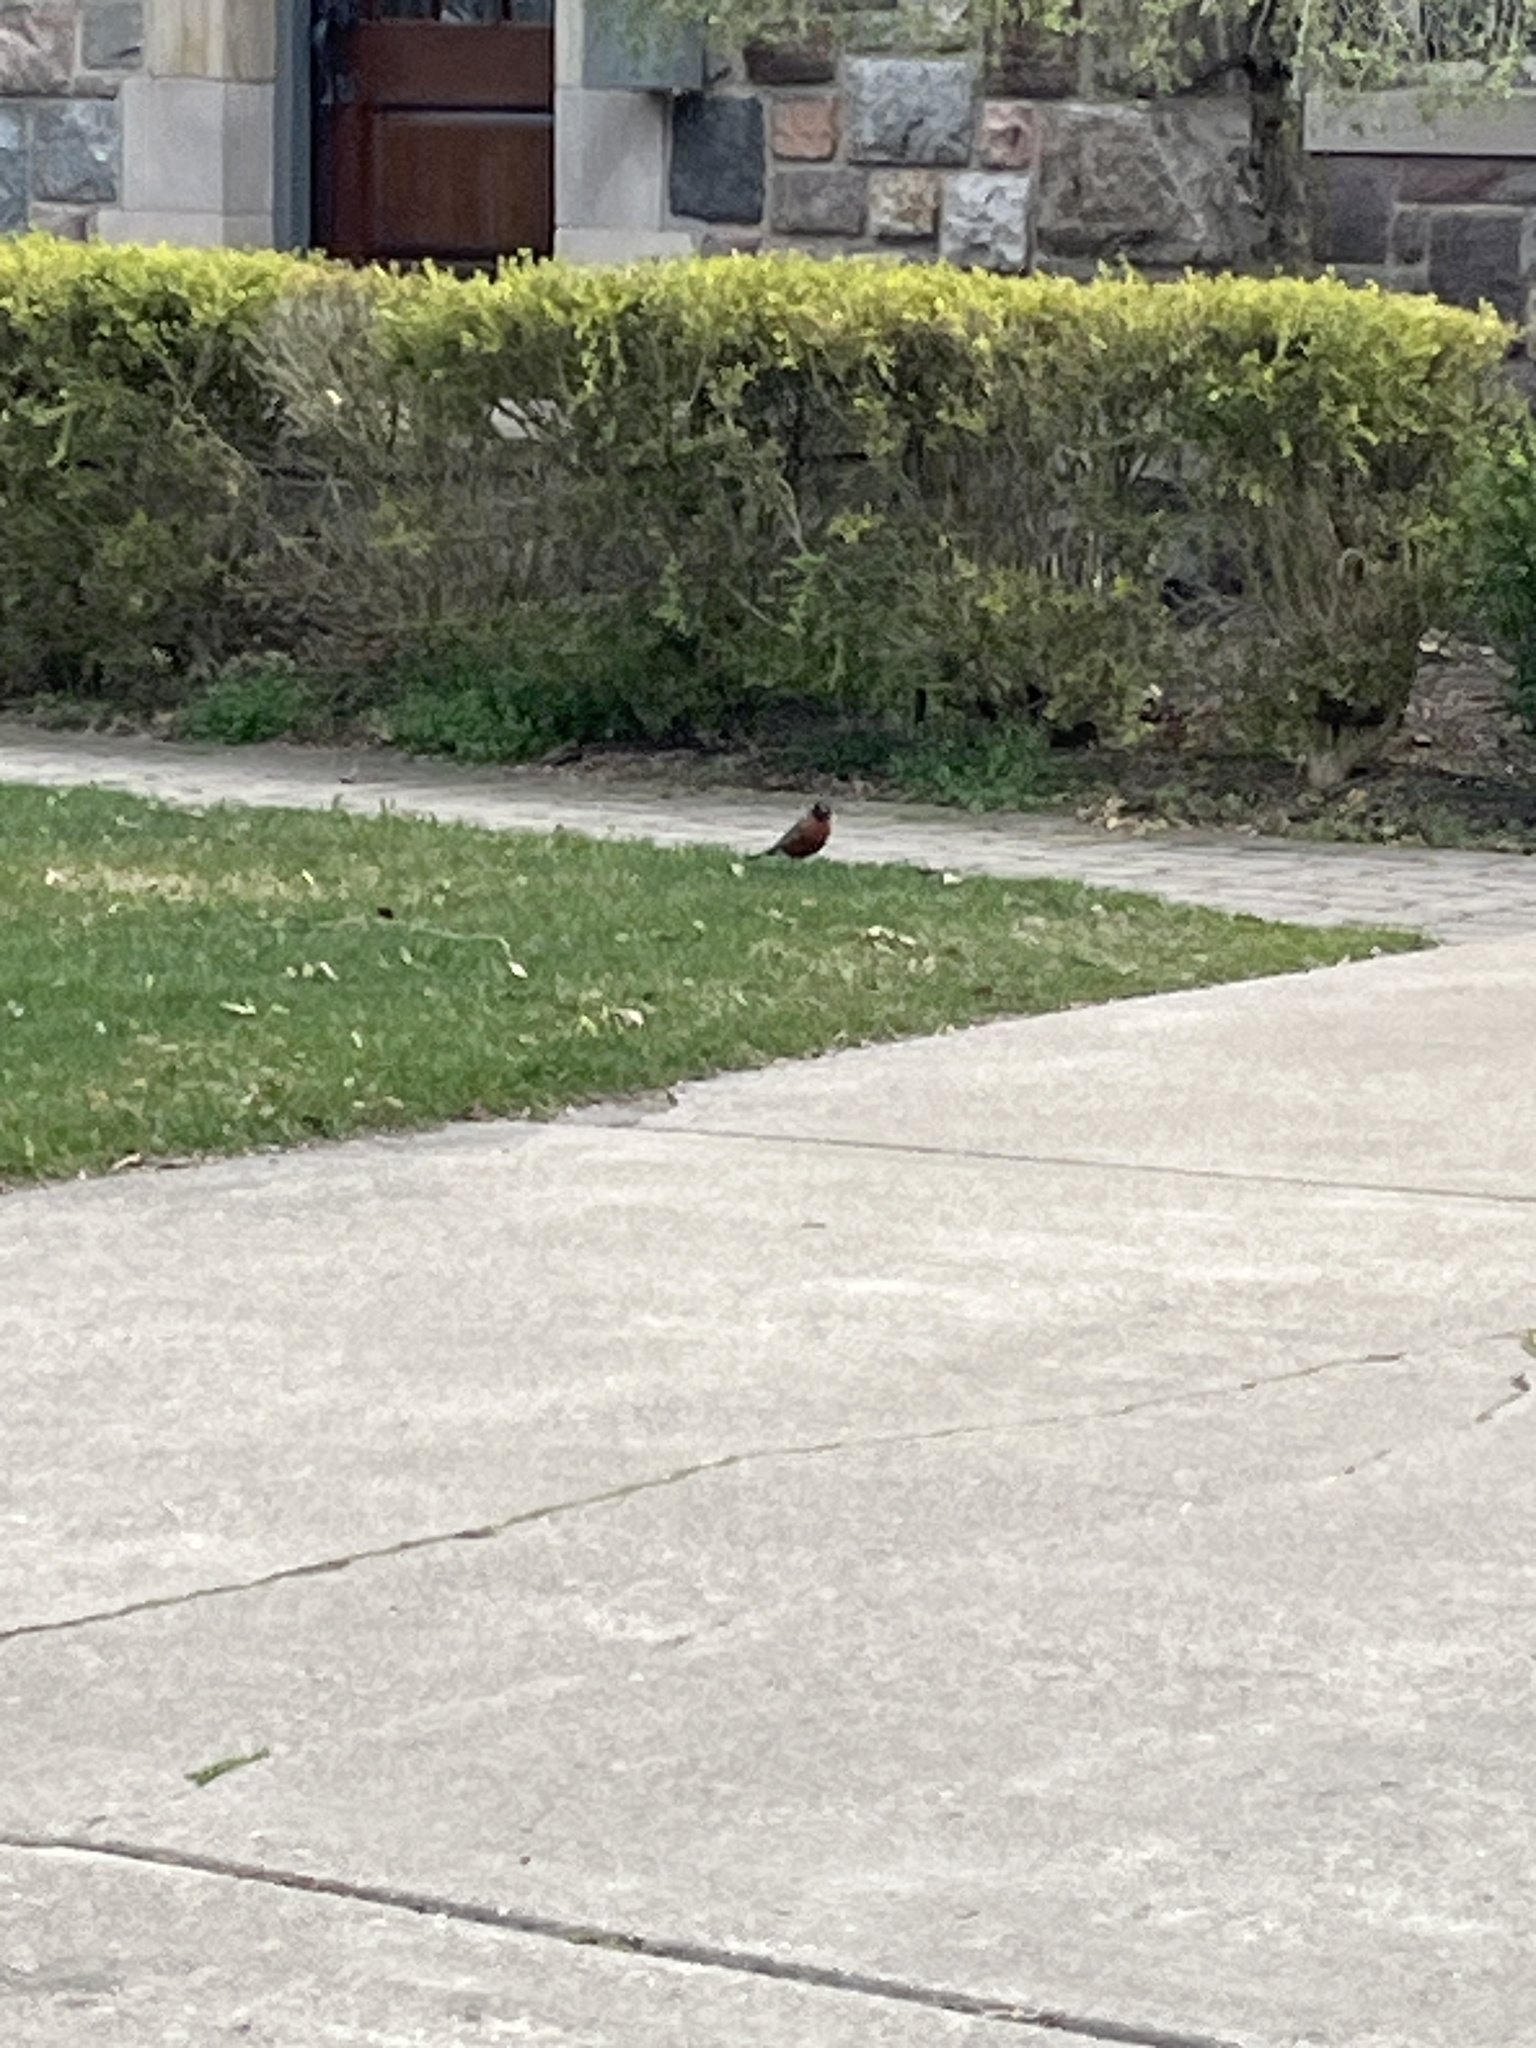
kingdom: Animalia
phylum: Chordata
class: Aves
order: Passeriformes
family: Turdidae
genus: Turdus
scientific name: Turdus migratorius
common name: American robin
